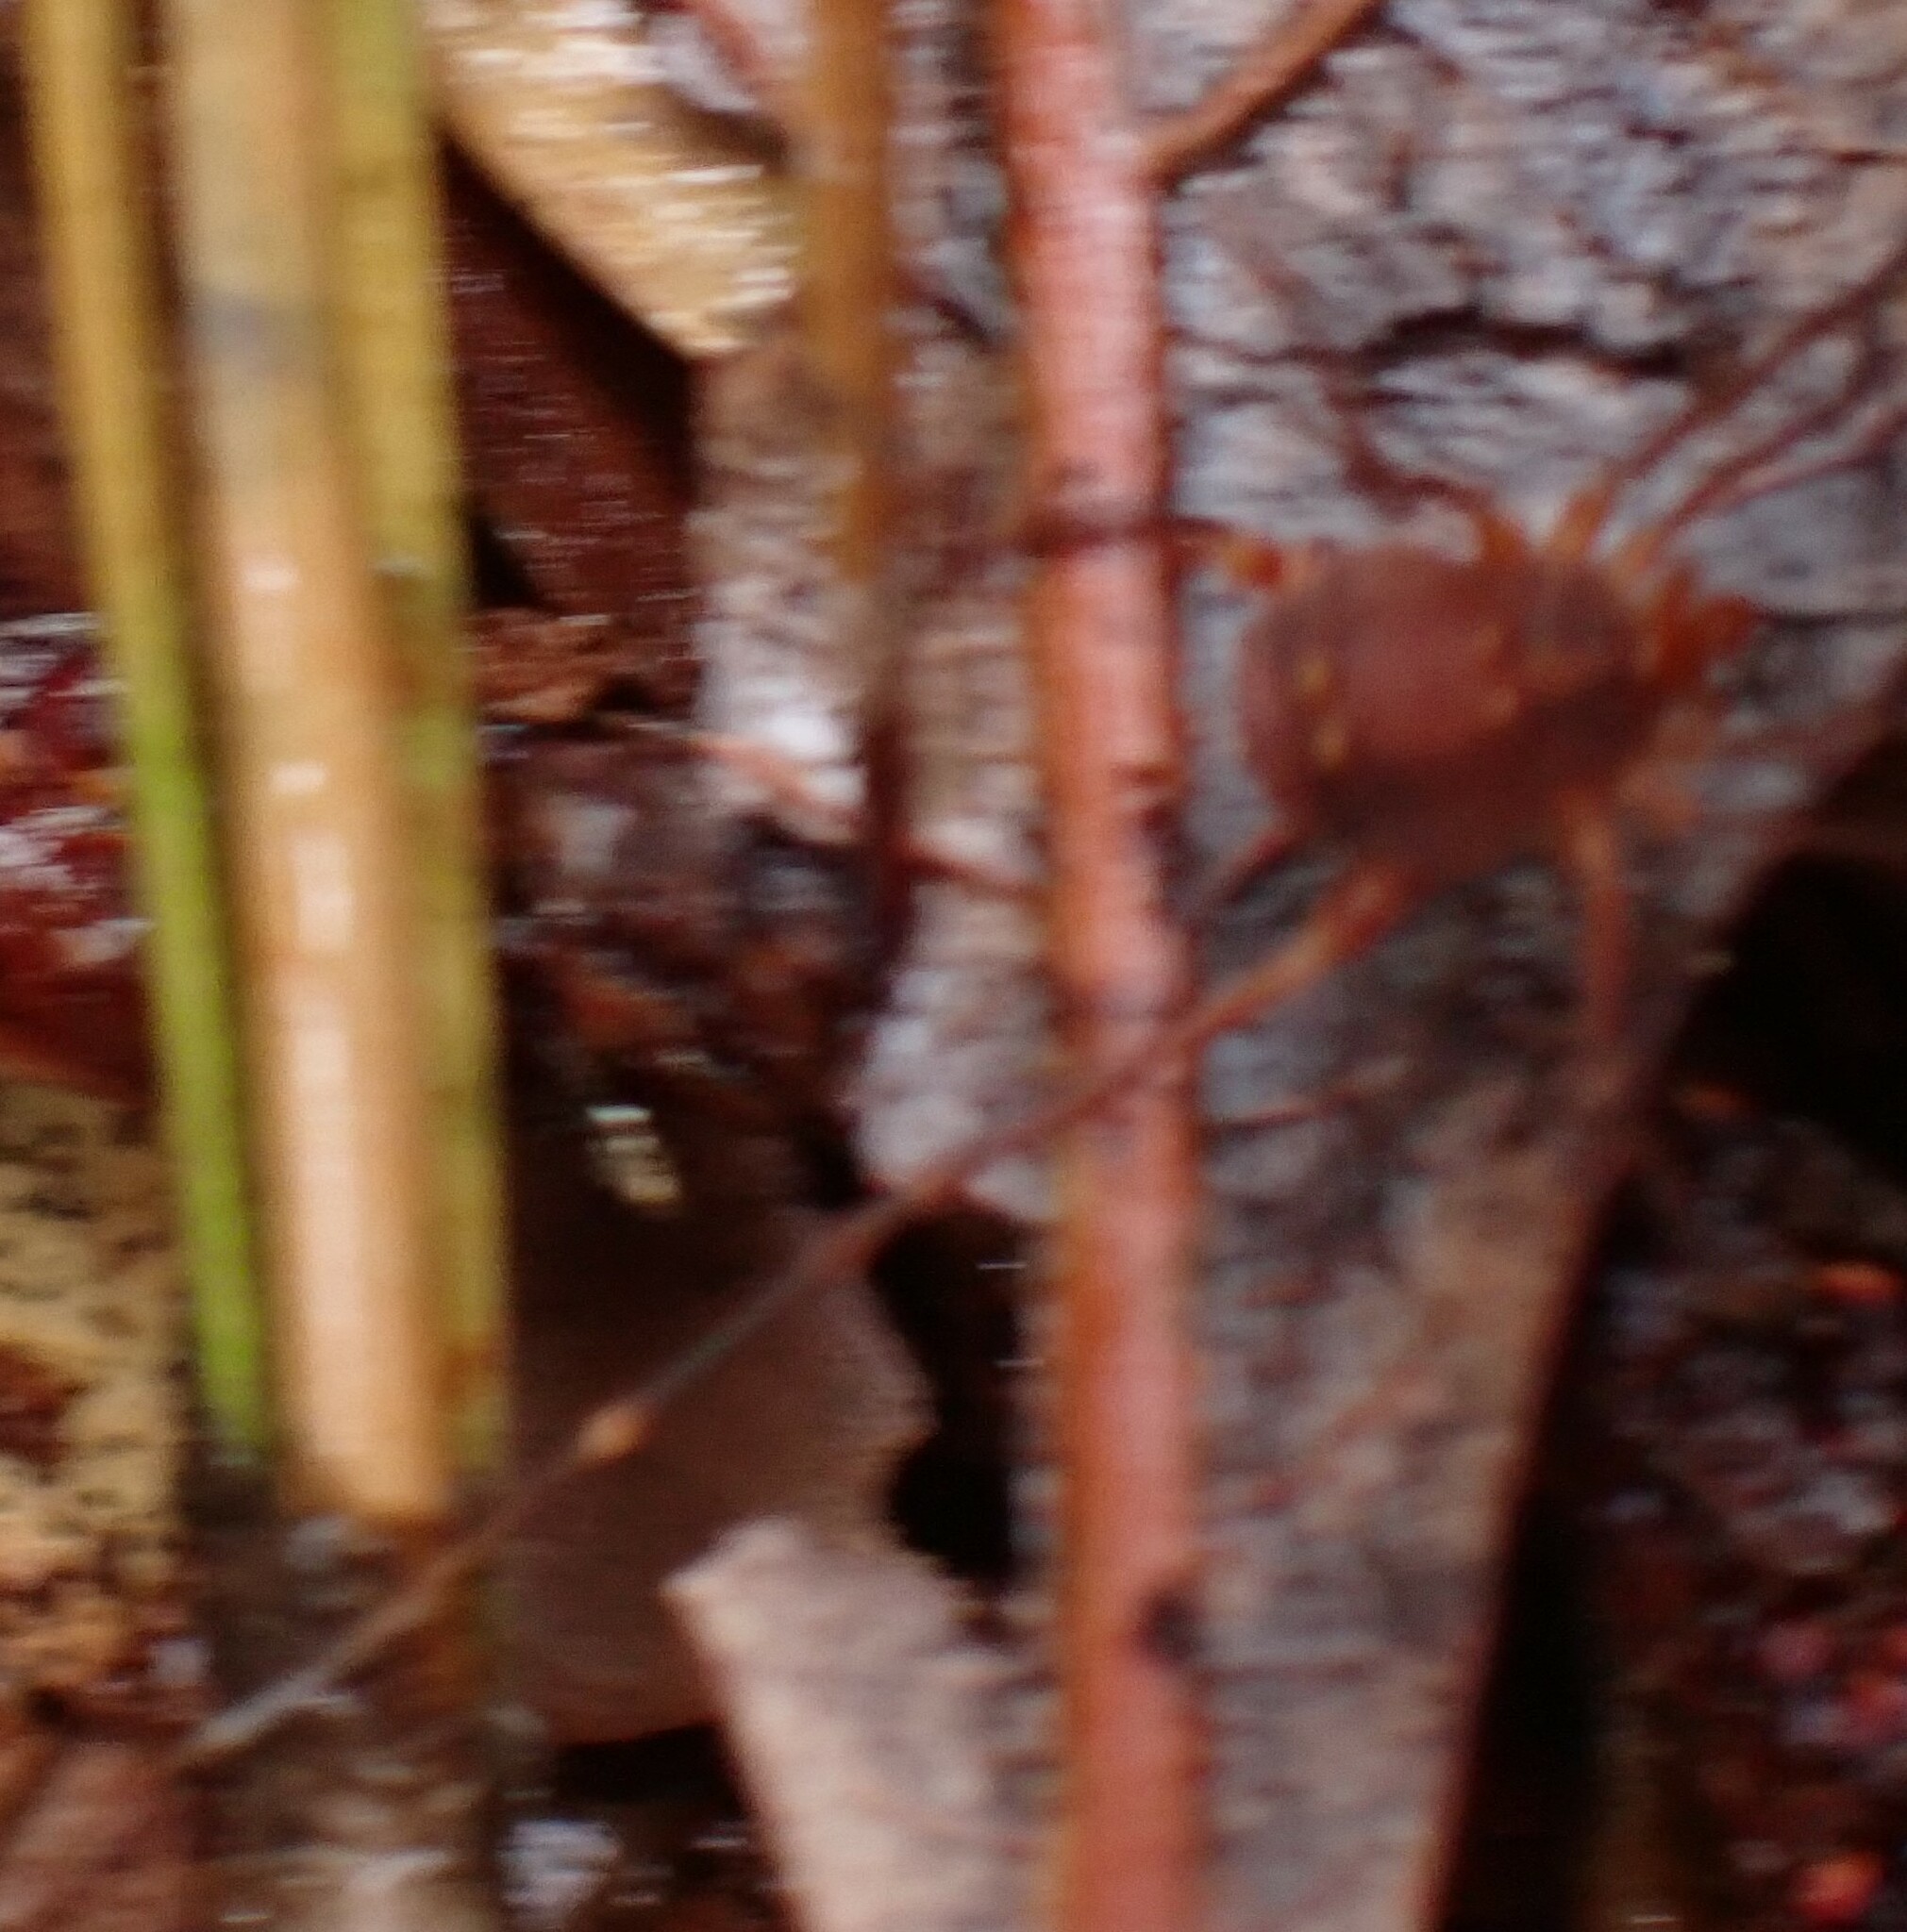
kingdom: Animalia
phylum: Arthropoda
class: Arachnida
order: Opiliones
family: Cosmetidae
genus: Libitioides
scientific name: Libitioides sayi
